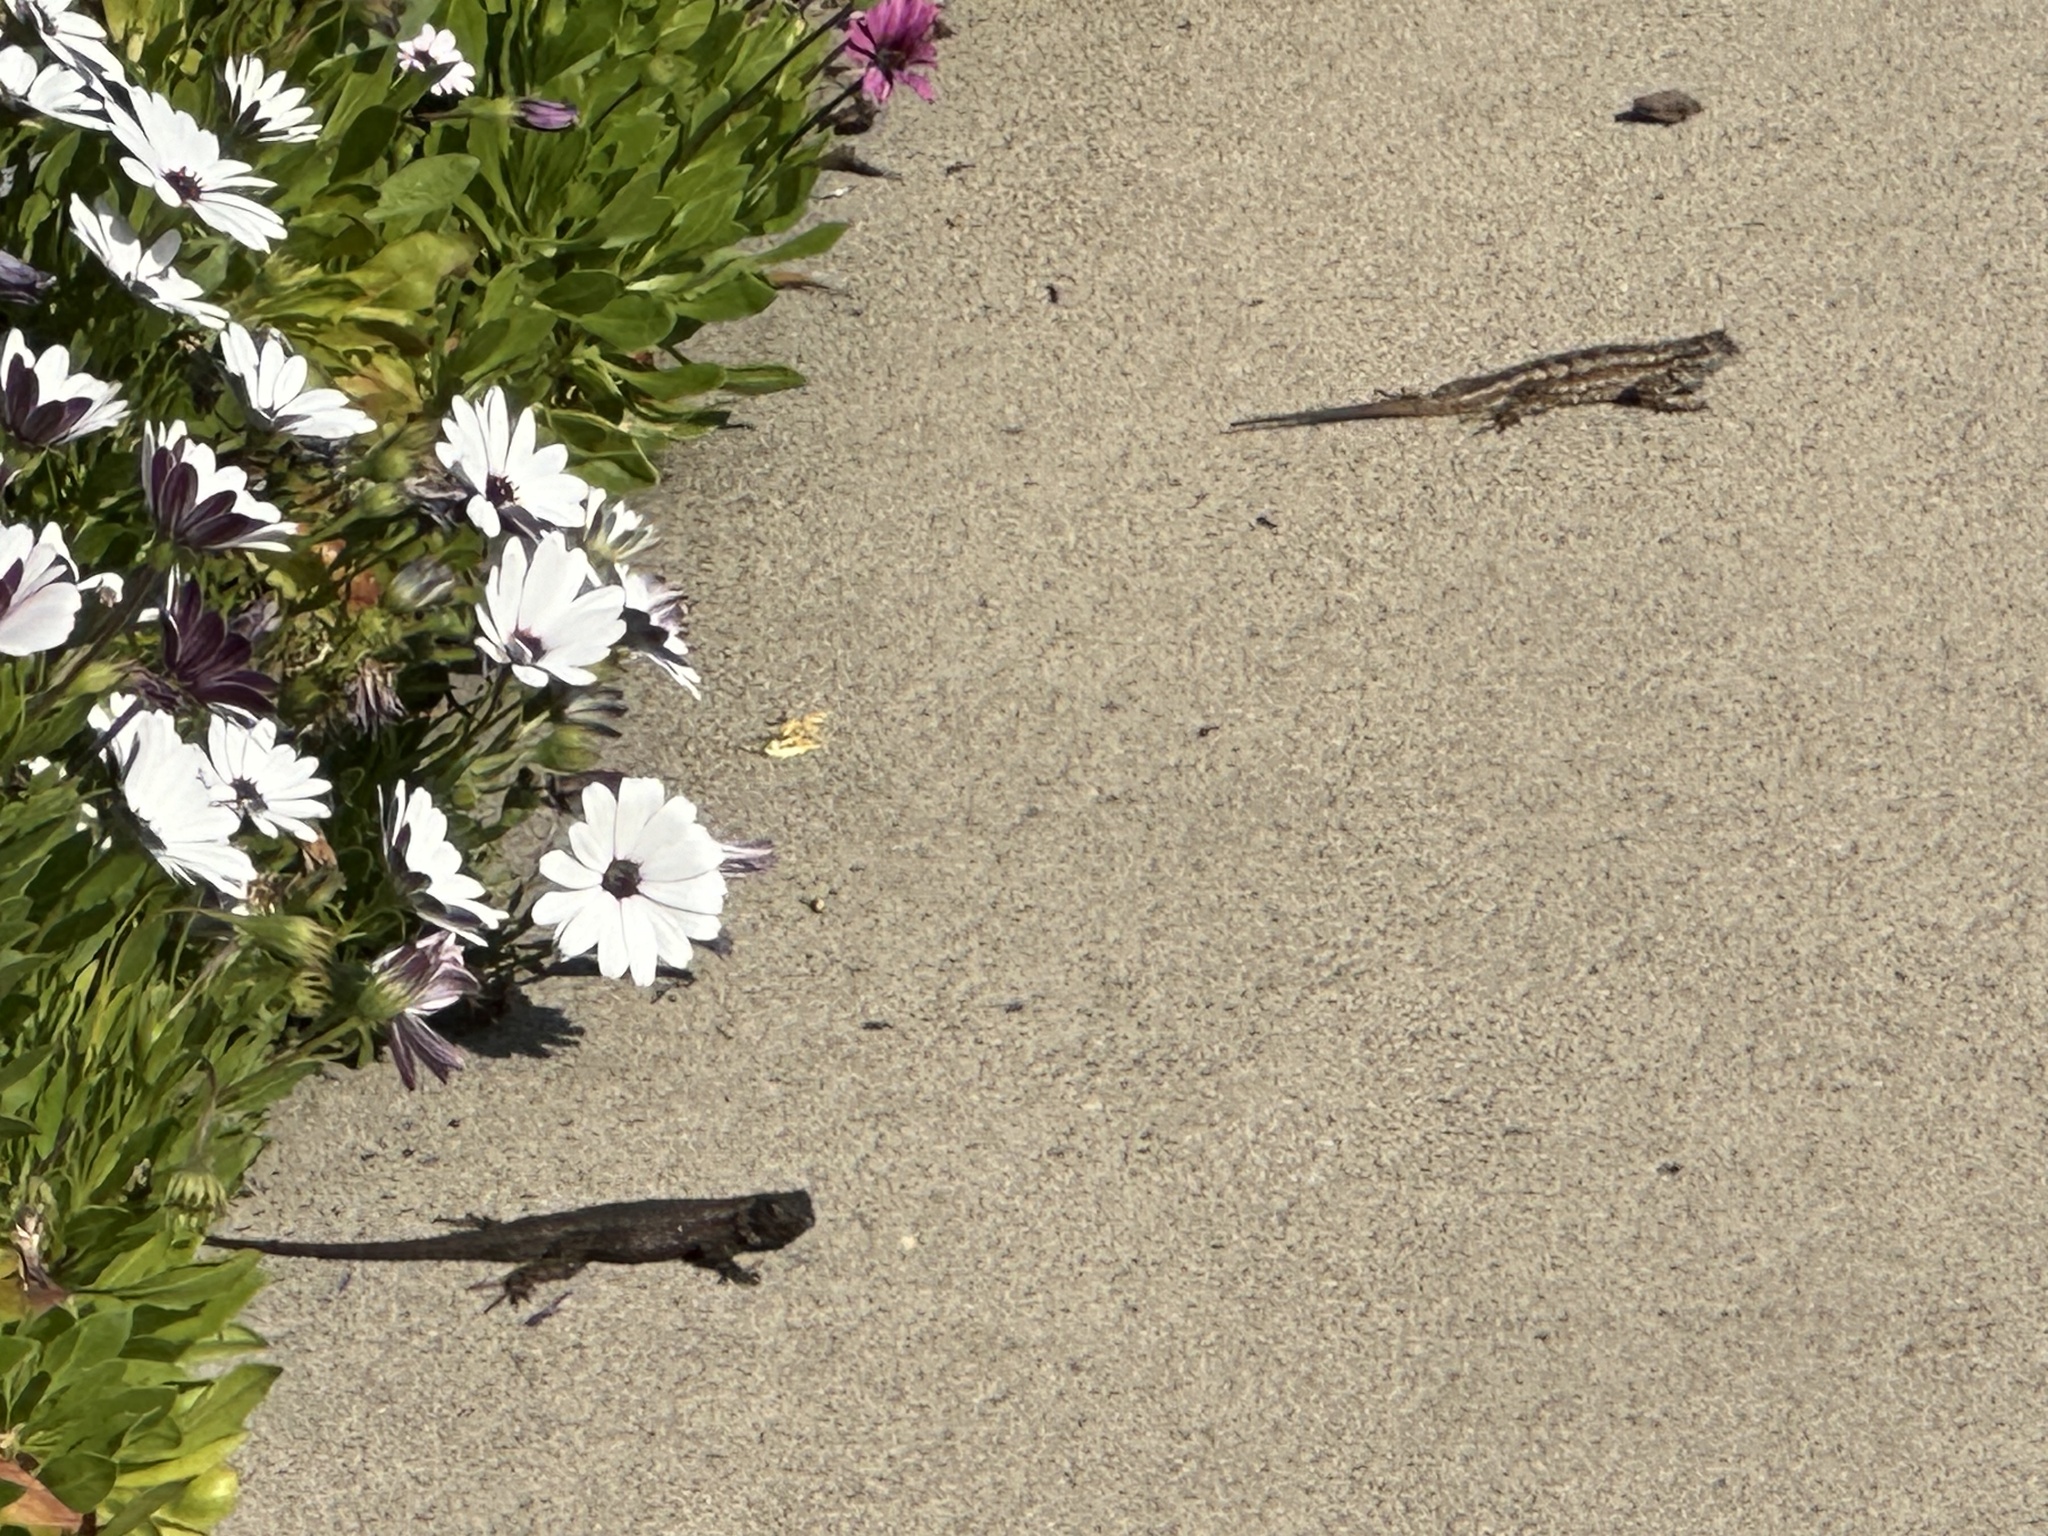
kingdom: Animalia
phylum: Chordata
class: Squamata
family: Phrynosomatidae
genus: Sceloporus
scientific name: Sceloporus occidentalis
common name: Western fence lizard
